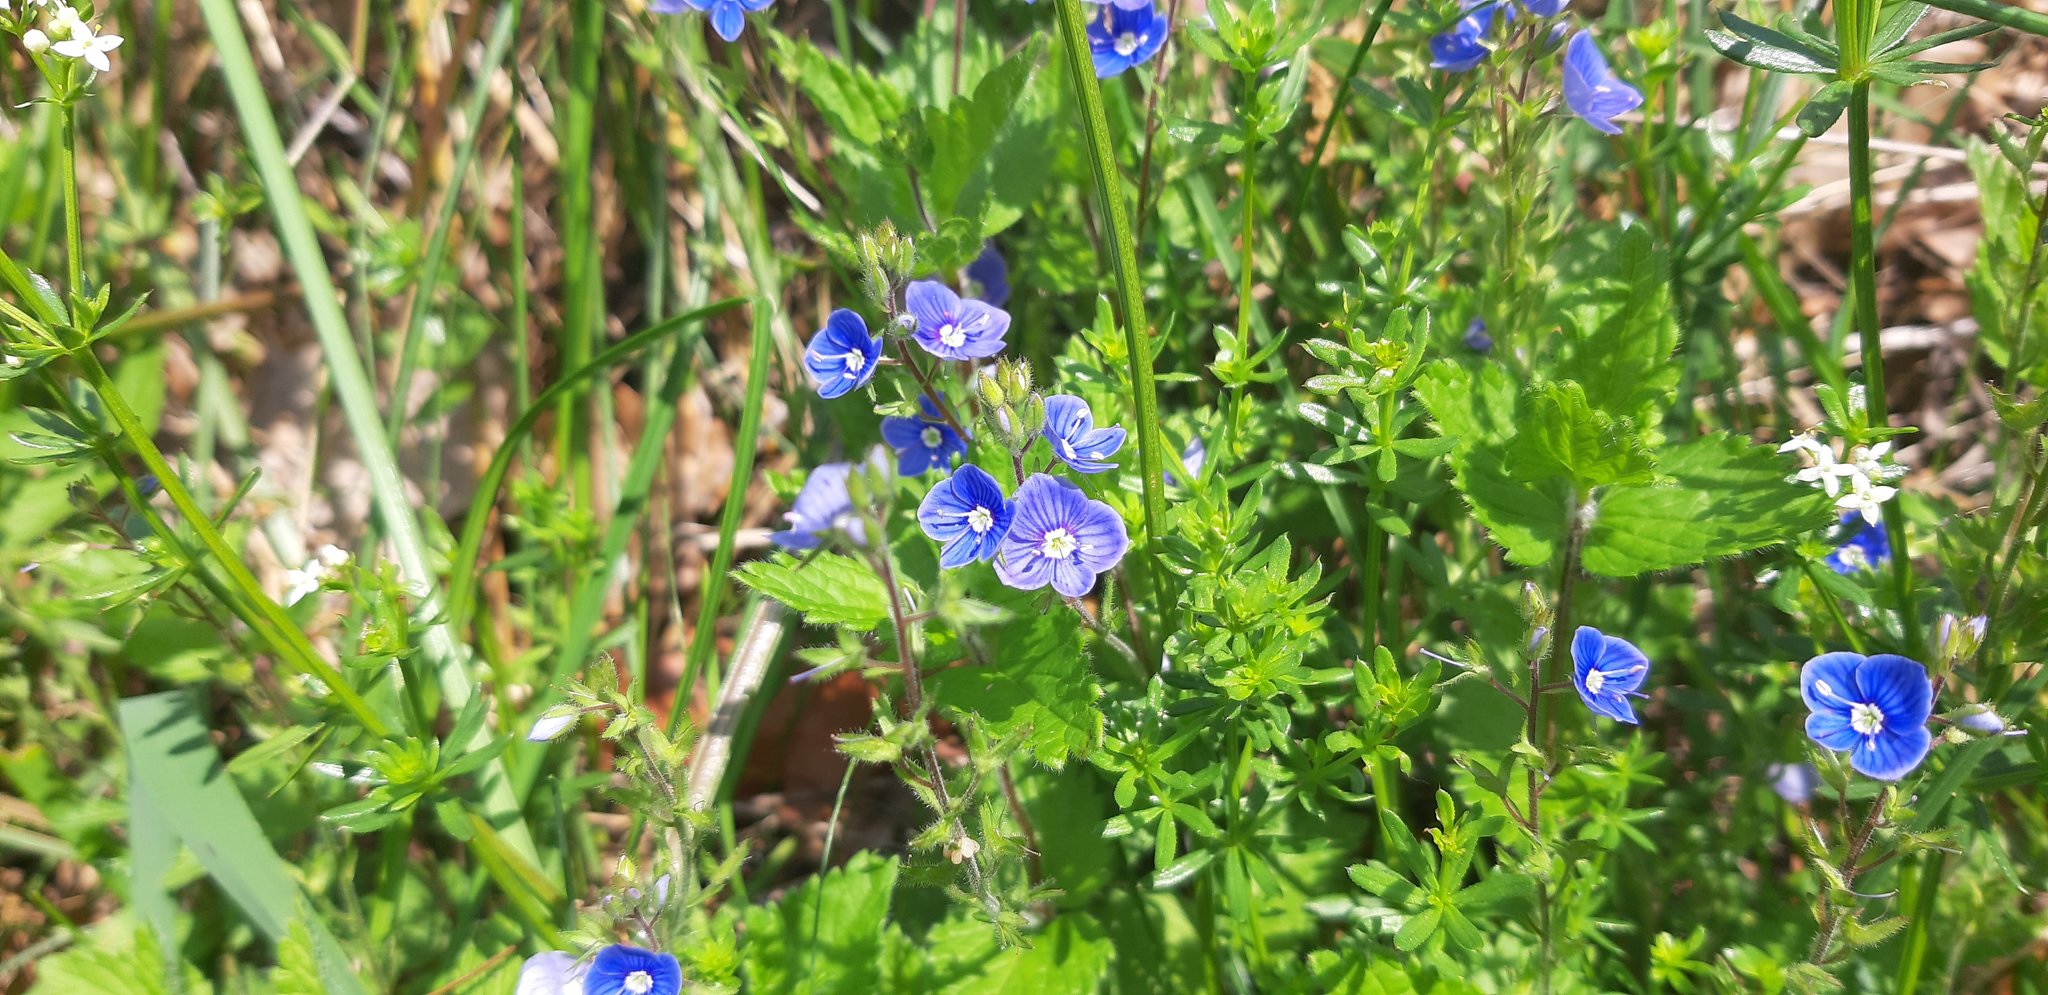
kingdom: Plantae
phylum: Tracheophyta
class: Magnoliopsida
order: Lamiales
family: Plantaginaceae
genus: Veronica
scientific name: Veronica chamaedrys
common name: Germander speedwell
